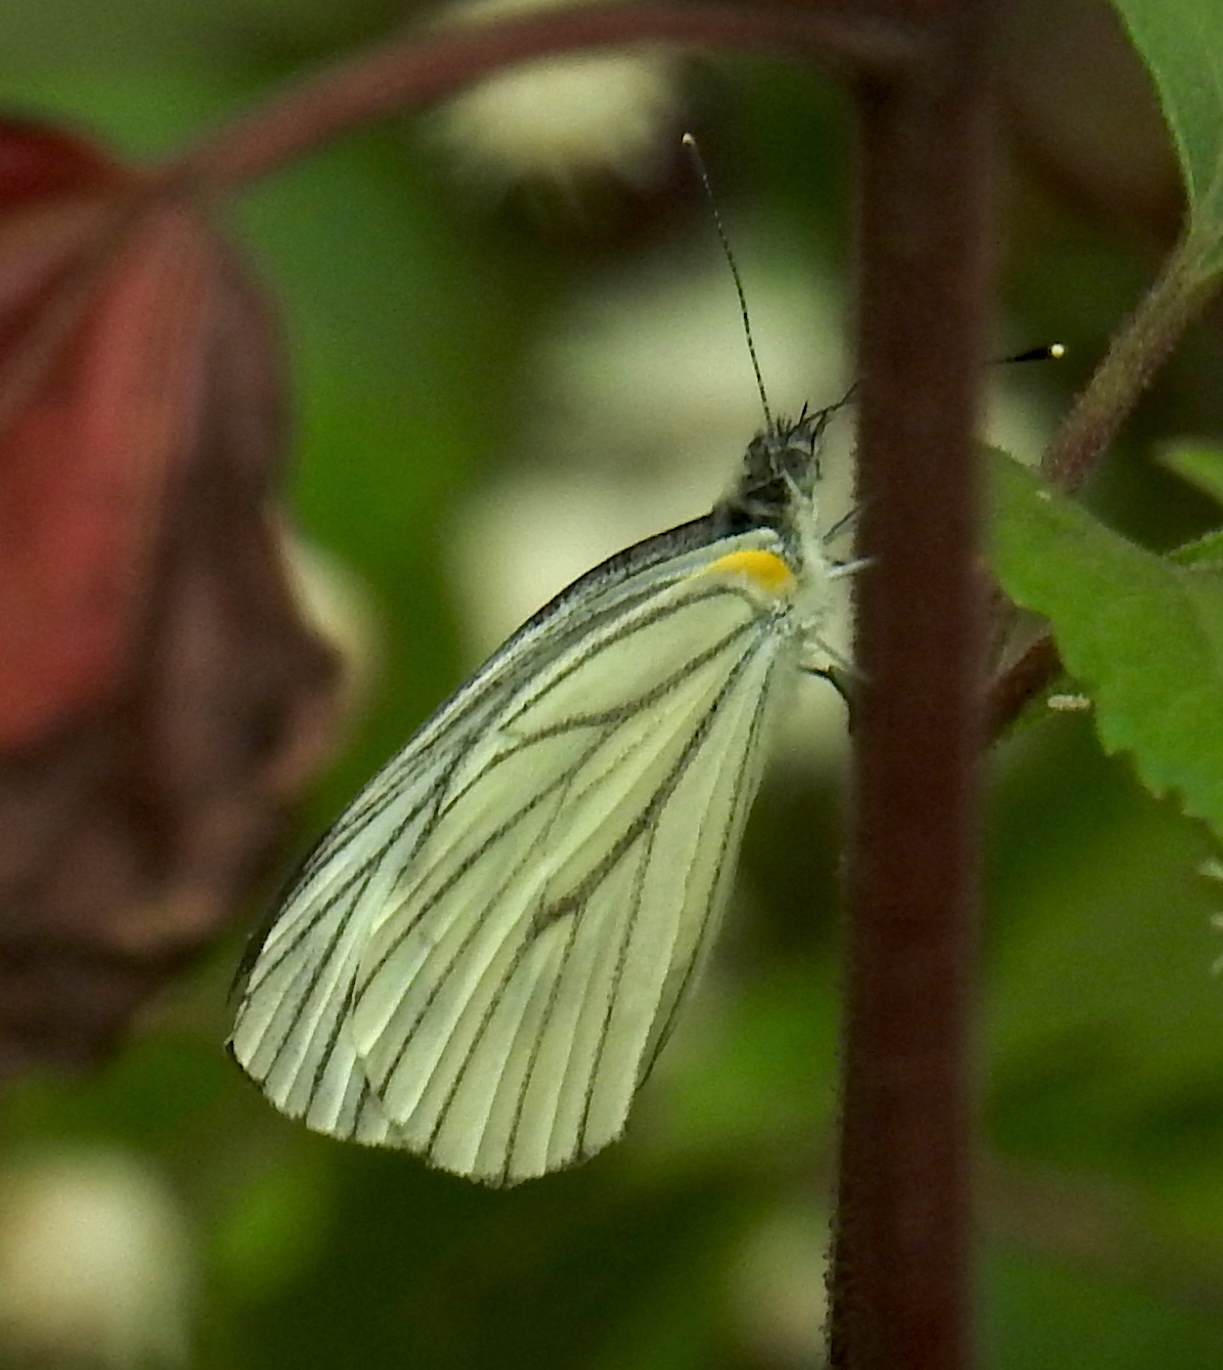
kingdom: Animalia
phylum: Arthropoda
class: Insecta
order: Lepidoptera
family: Pieridae
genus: Pieris
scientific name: Pieris erutae
